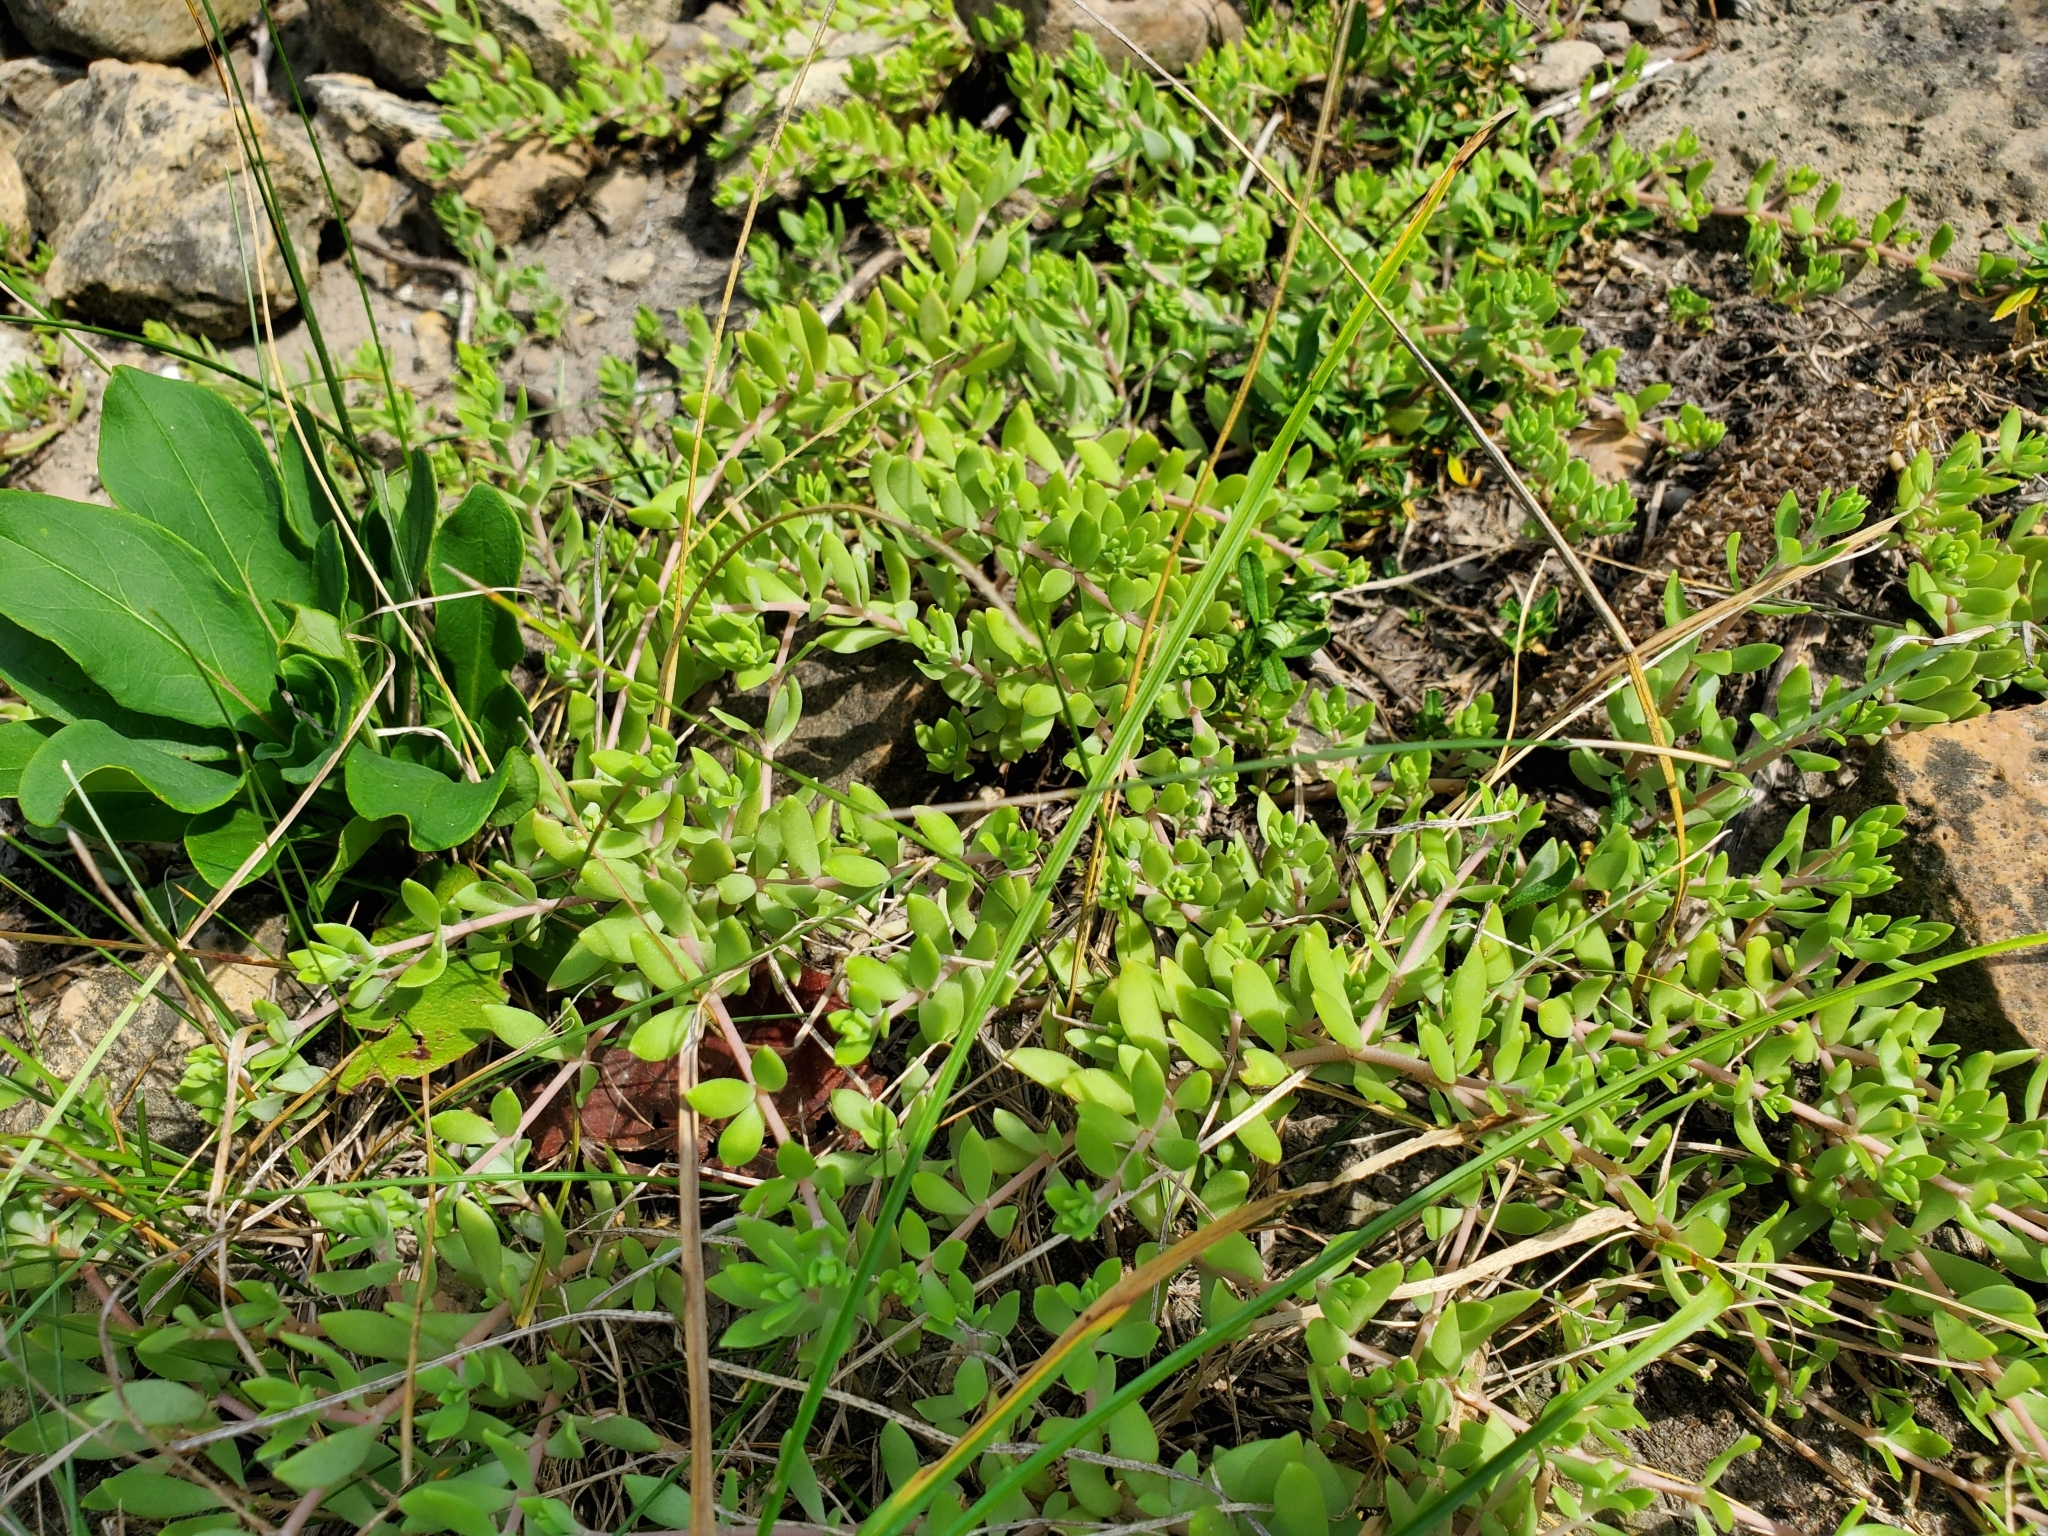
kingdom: Plantae
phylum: Tracheophyta
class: Magnoliopsida
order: Saxifragales
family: Crassulaceae
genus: Sedum
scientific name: Sedum sarmentosum
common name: Stringy stonecrop
